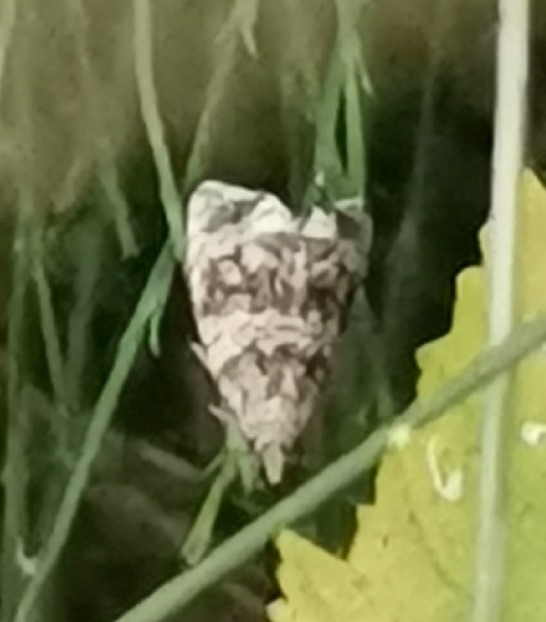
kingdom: Animalia
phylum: Arthropoda
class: Insecta
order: Lepidoptera
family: Tortricidae
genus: Syricoris
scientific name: Syricoris rivulana
